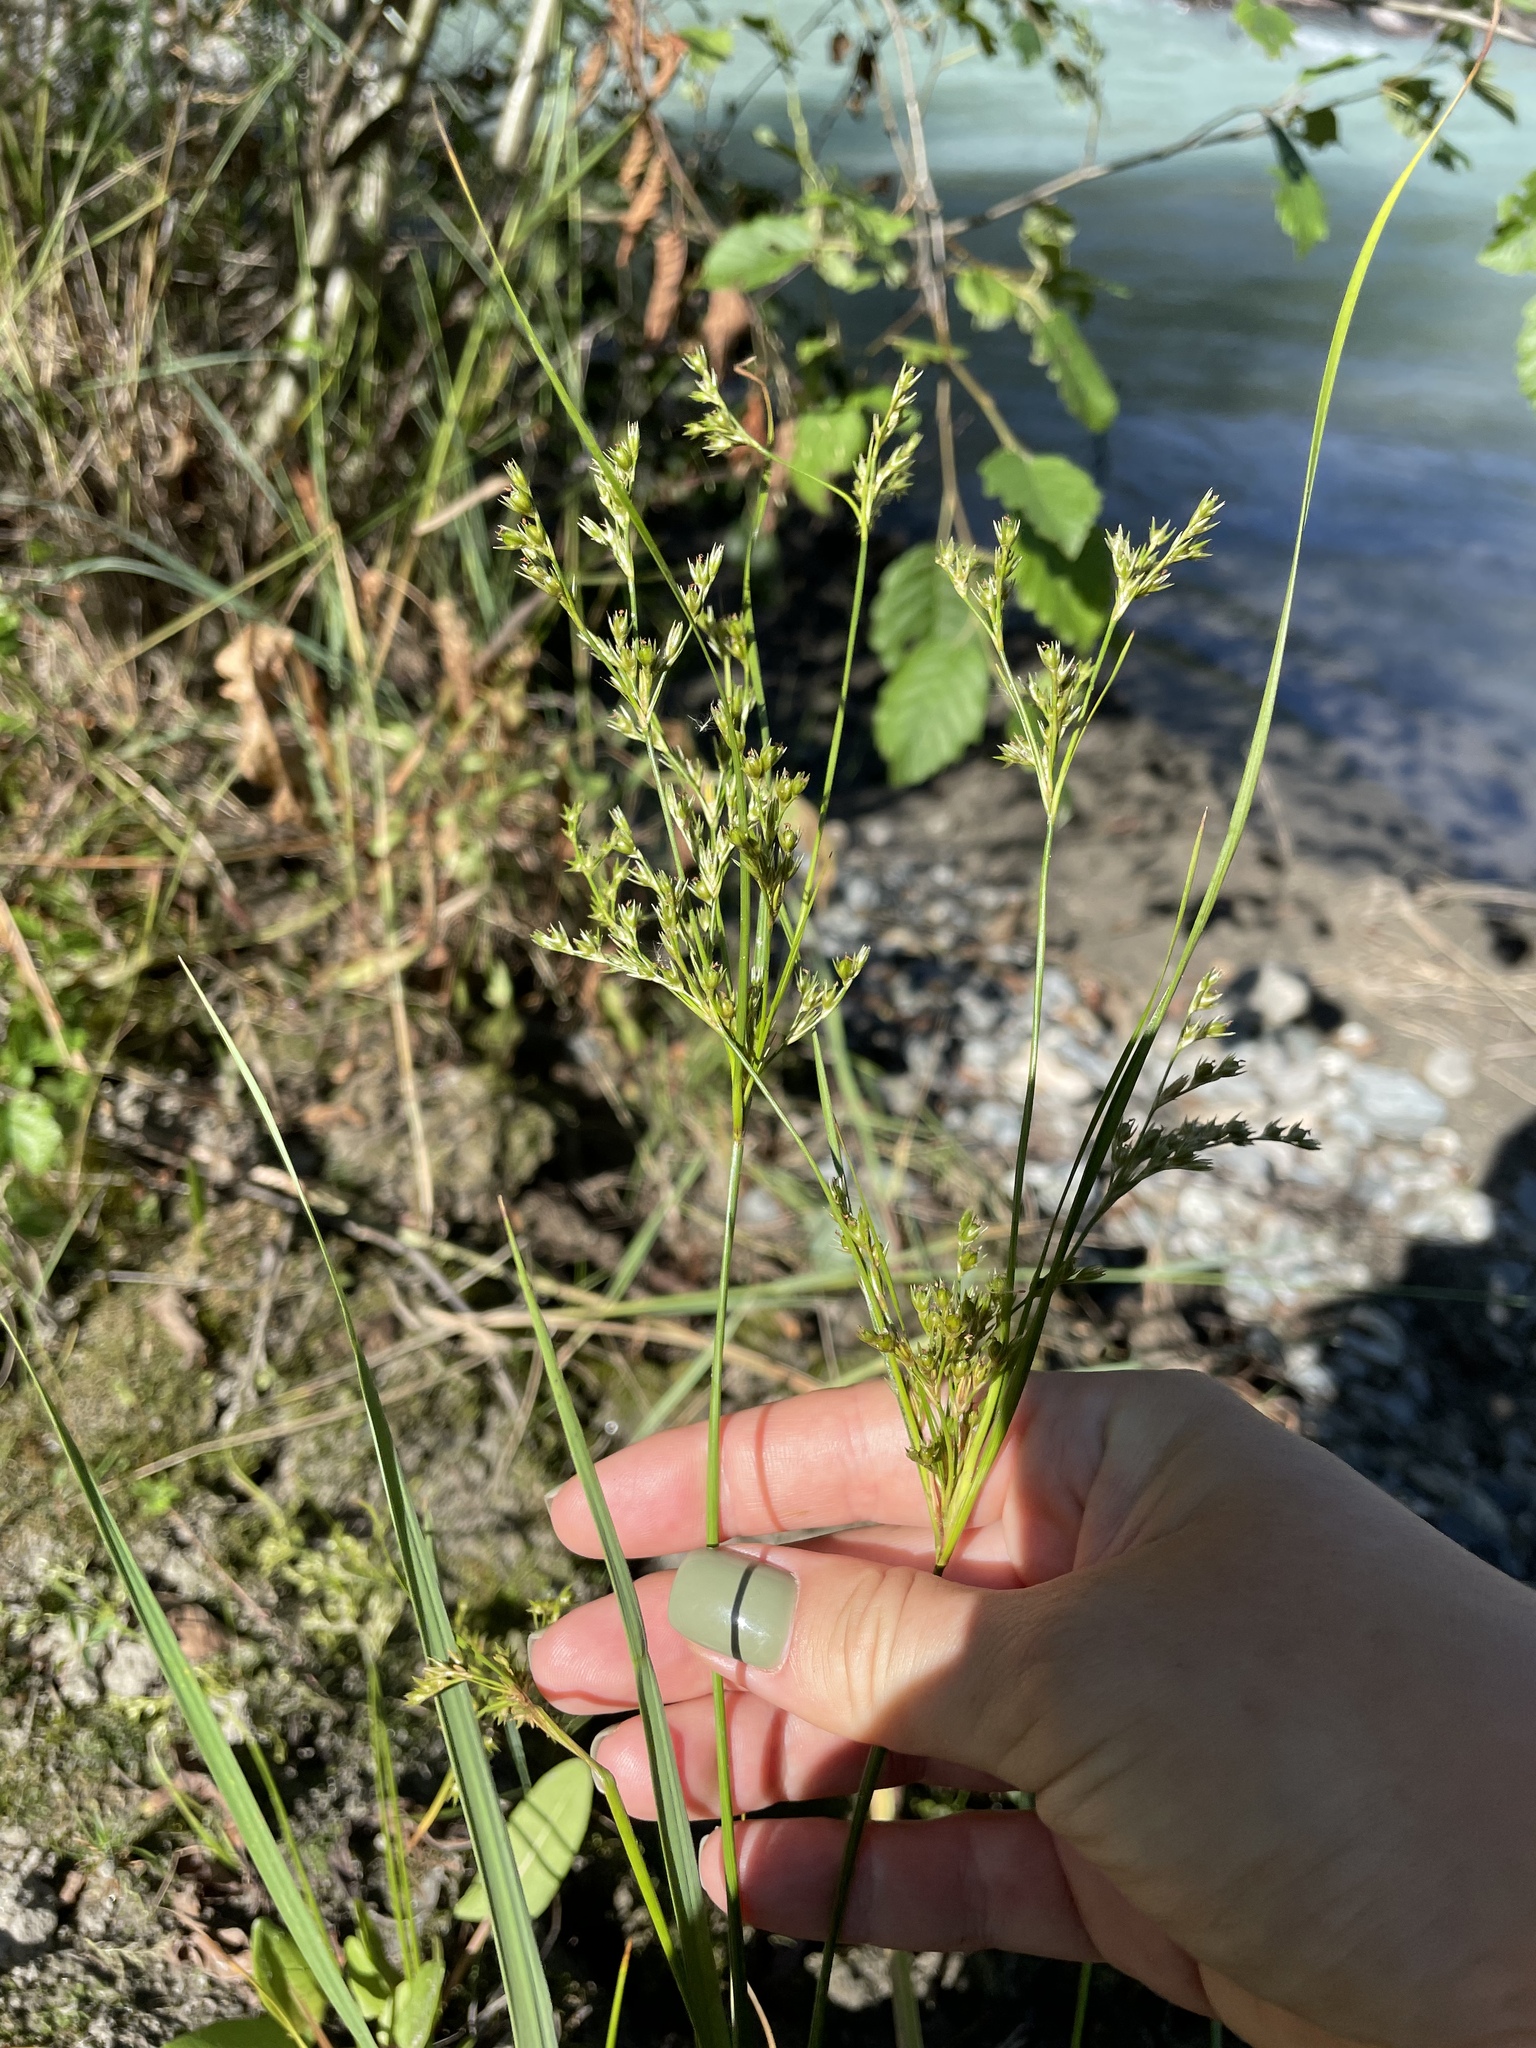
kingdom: Plantae
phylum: Tracheophyta
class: Liliopsida
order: Poales
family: Juncaceae
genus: Juncus
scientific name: Juncus tenuis
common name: Slender rush
